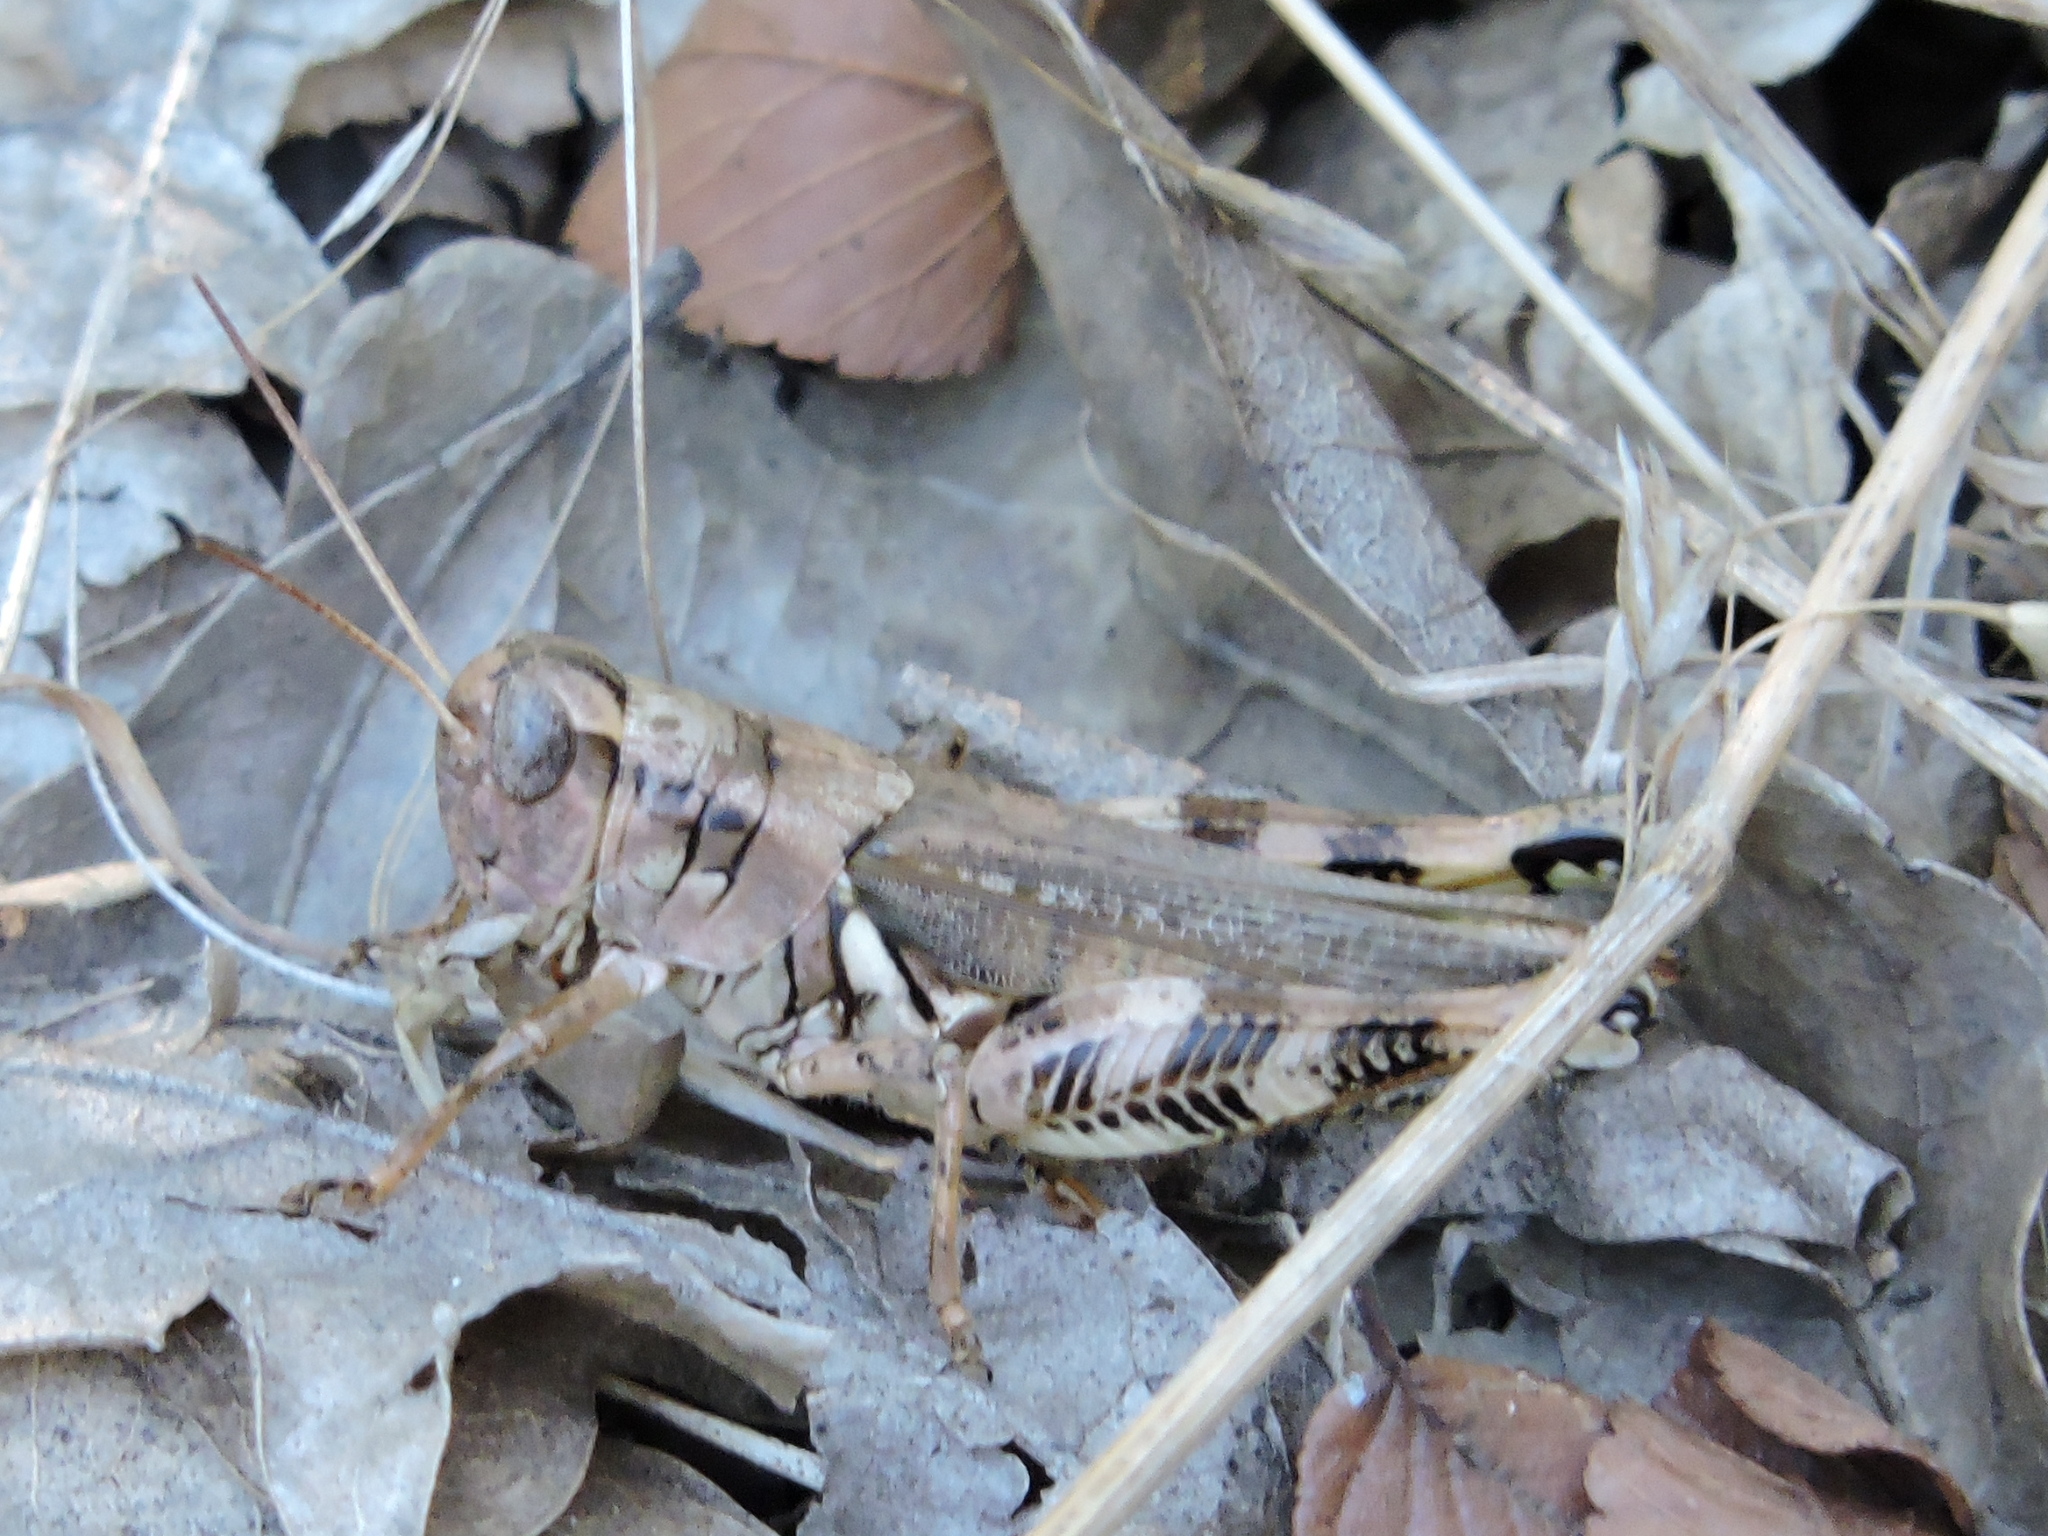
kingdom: Animalia
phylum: Arthropoda
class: Insecta
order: Orthoptera
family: Acrididae
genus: Melanoplus
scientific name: Melanoplus ponderosus
